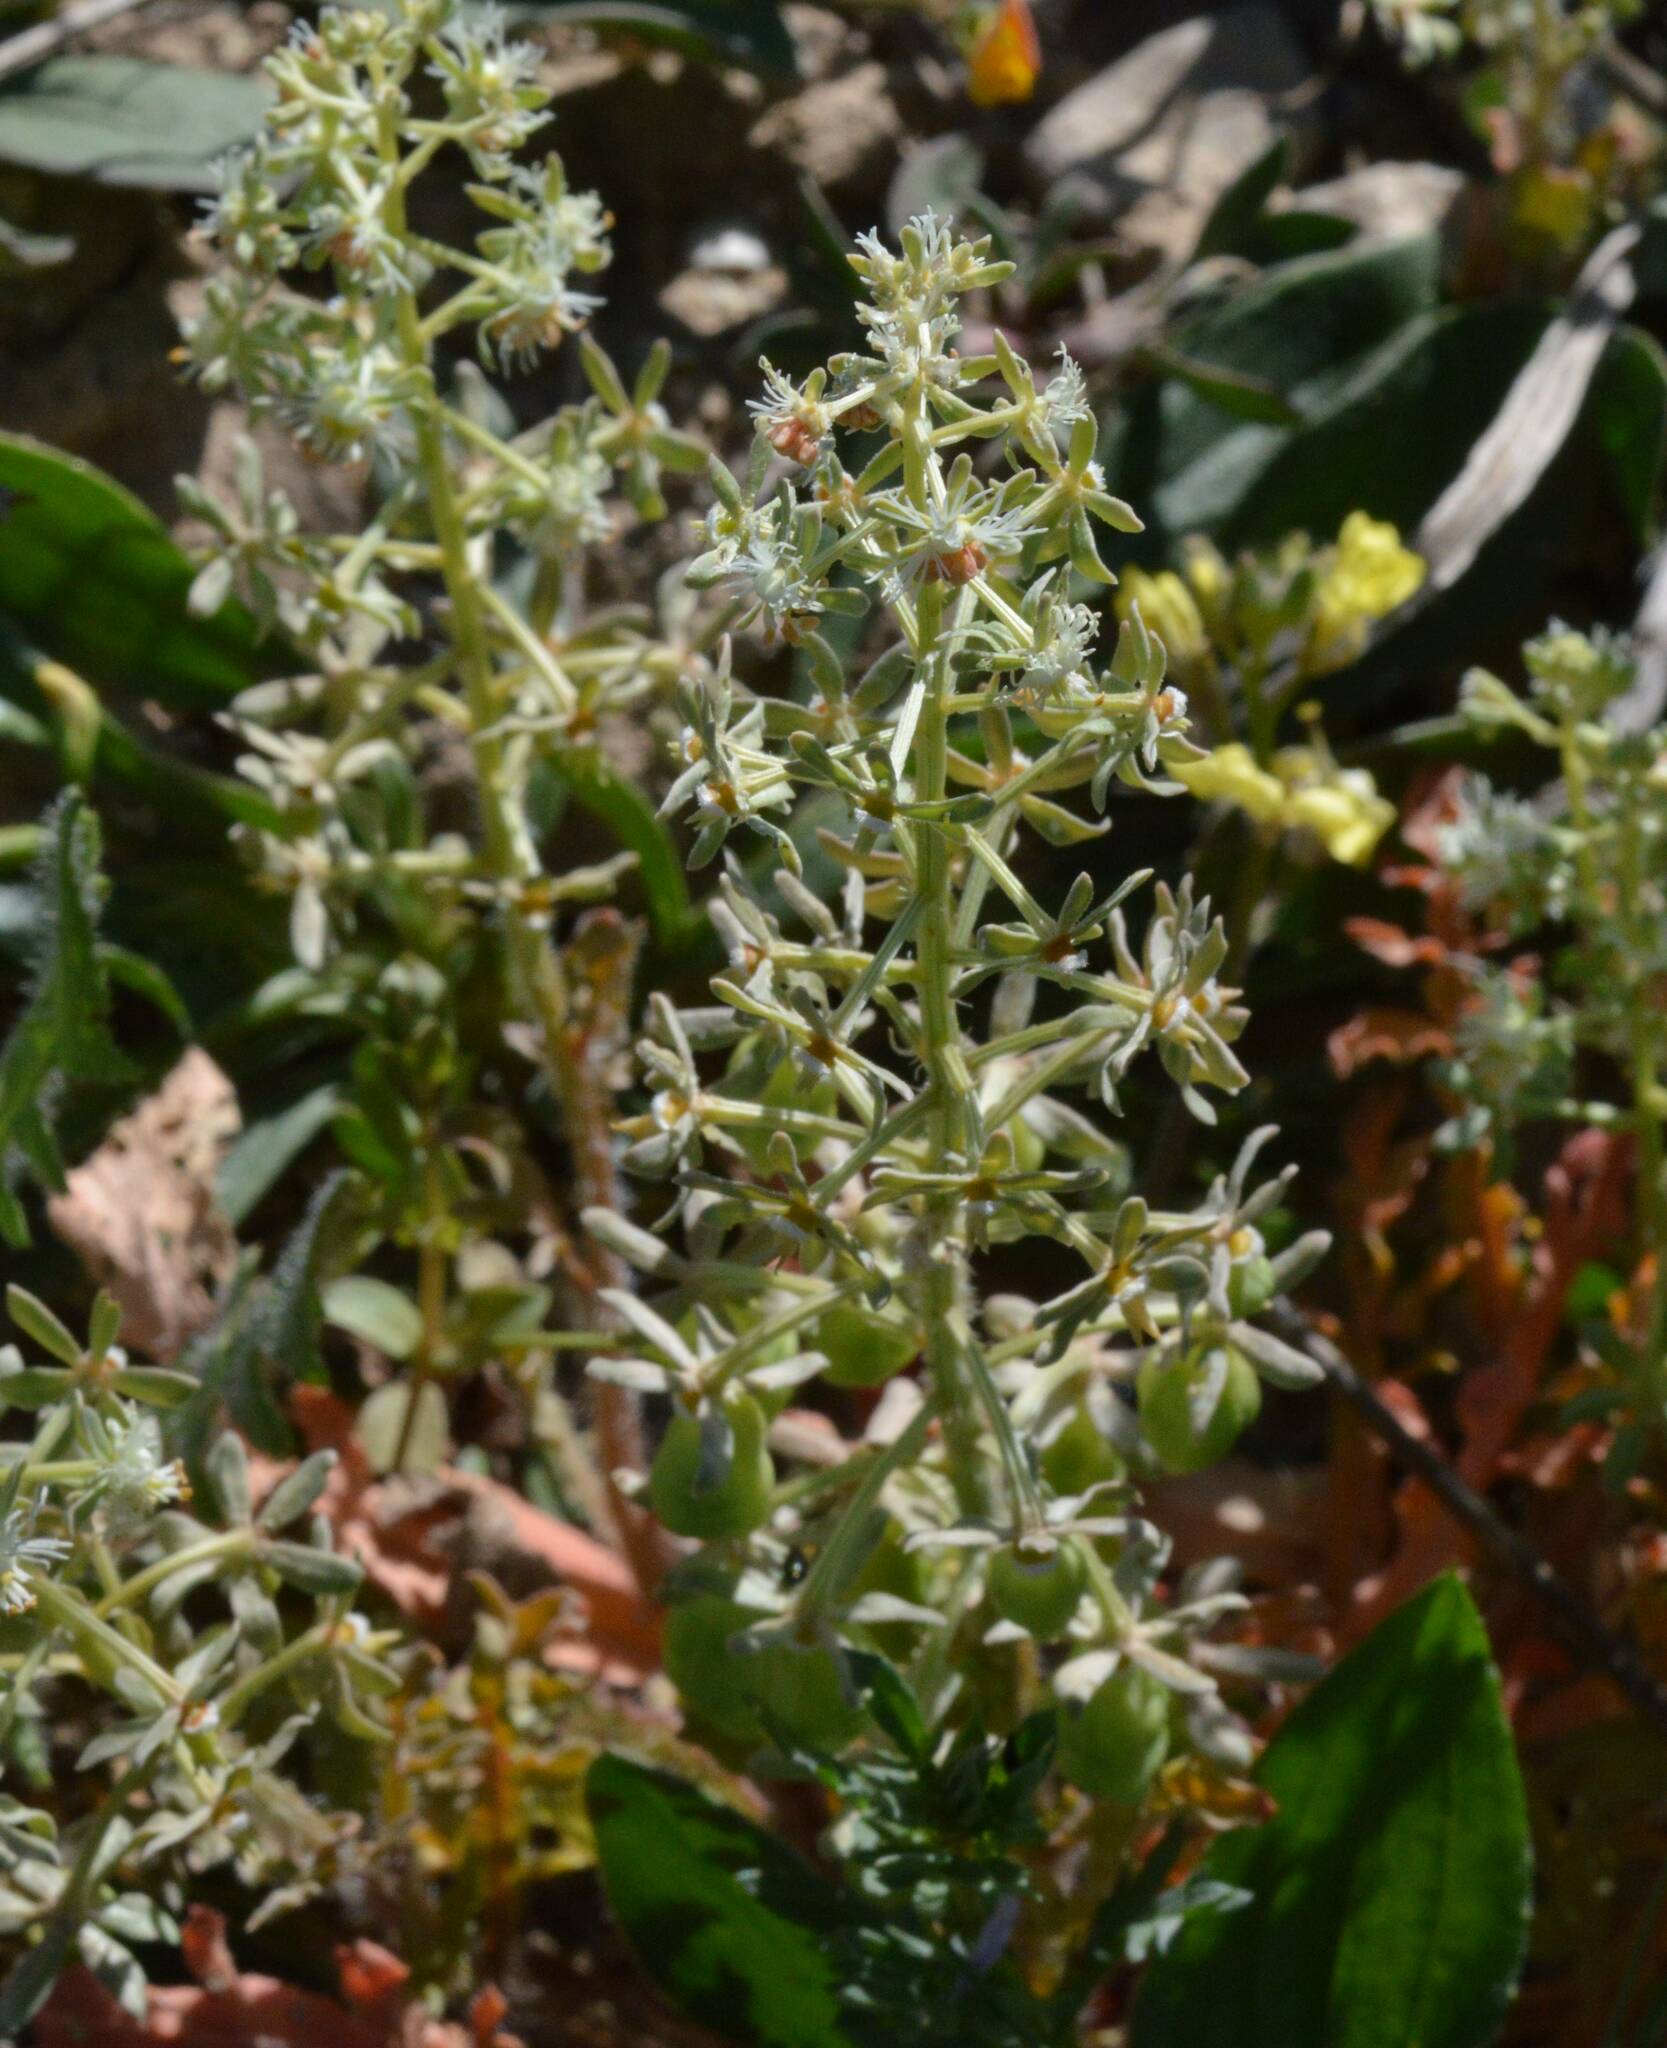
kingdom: Plantae
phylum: Tracheophyta
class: Magnoliopsida
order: Brassicales
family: Resedaceae
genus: Reseda
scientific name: Reseda phyteuma
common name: Corn mignonette
